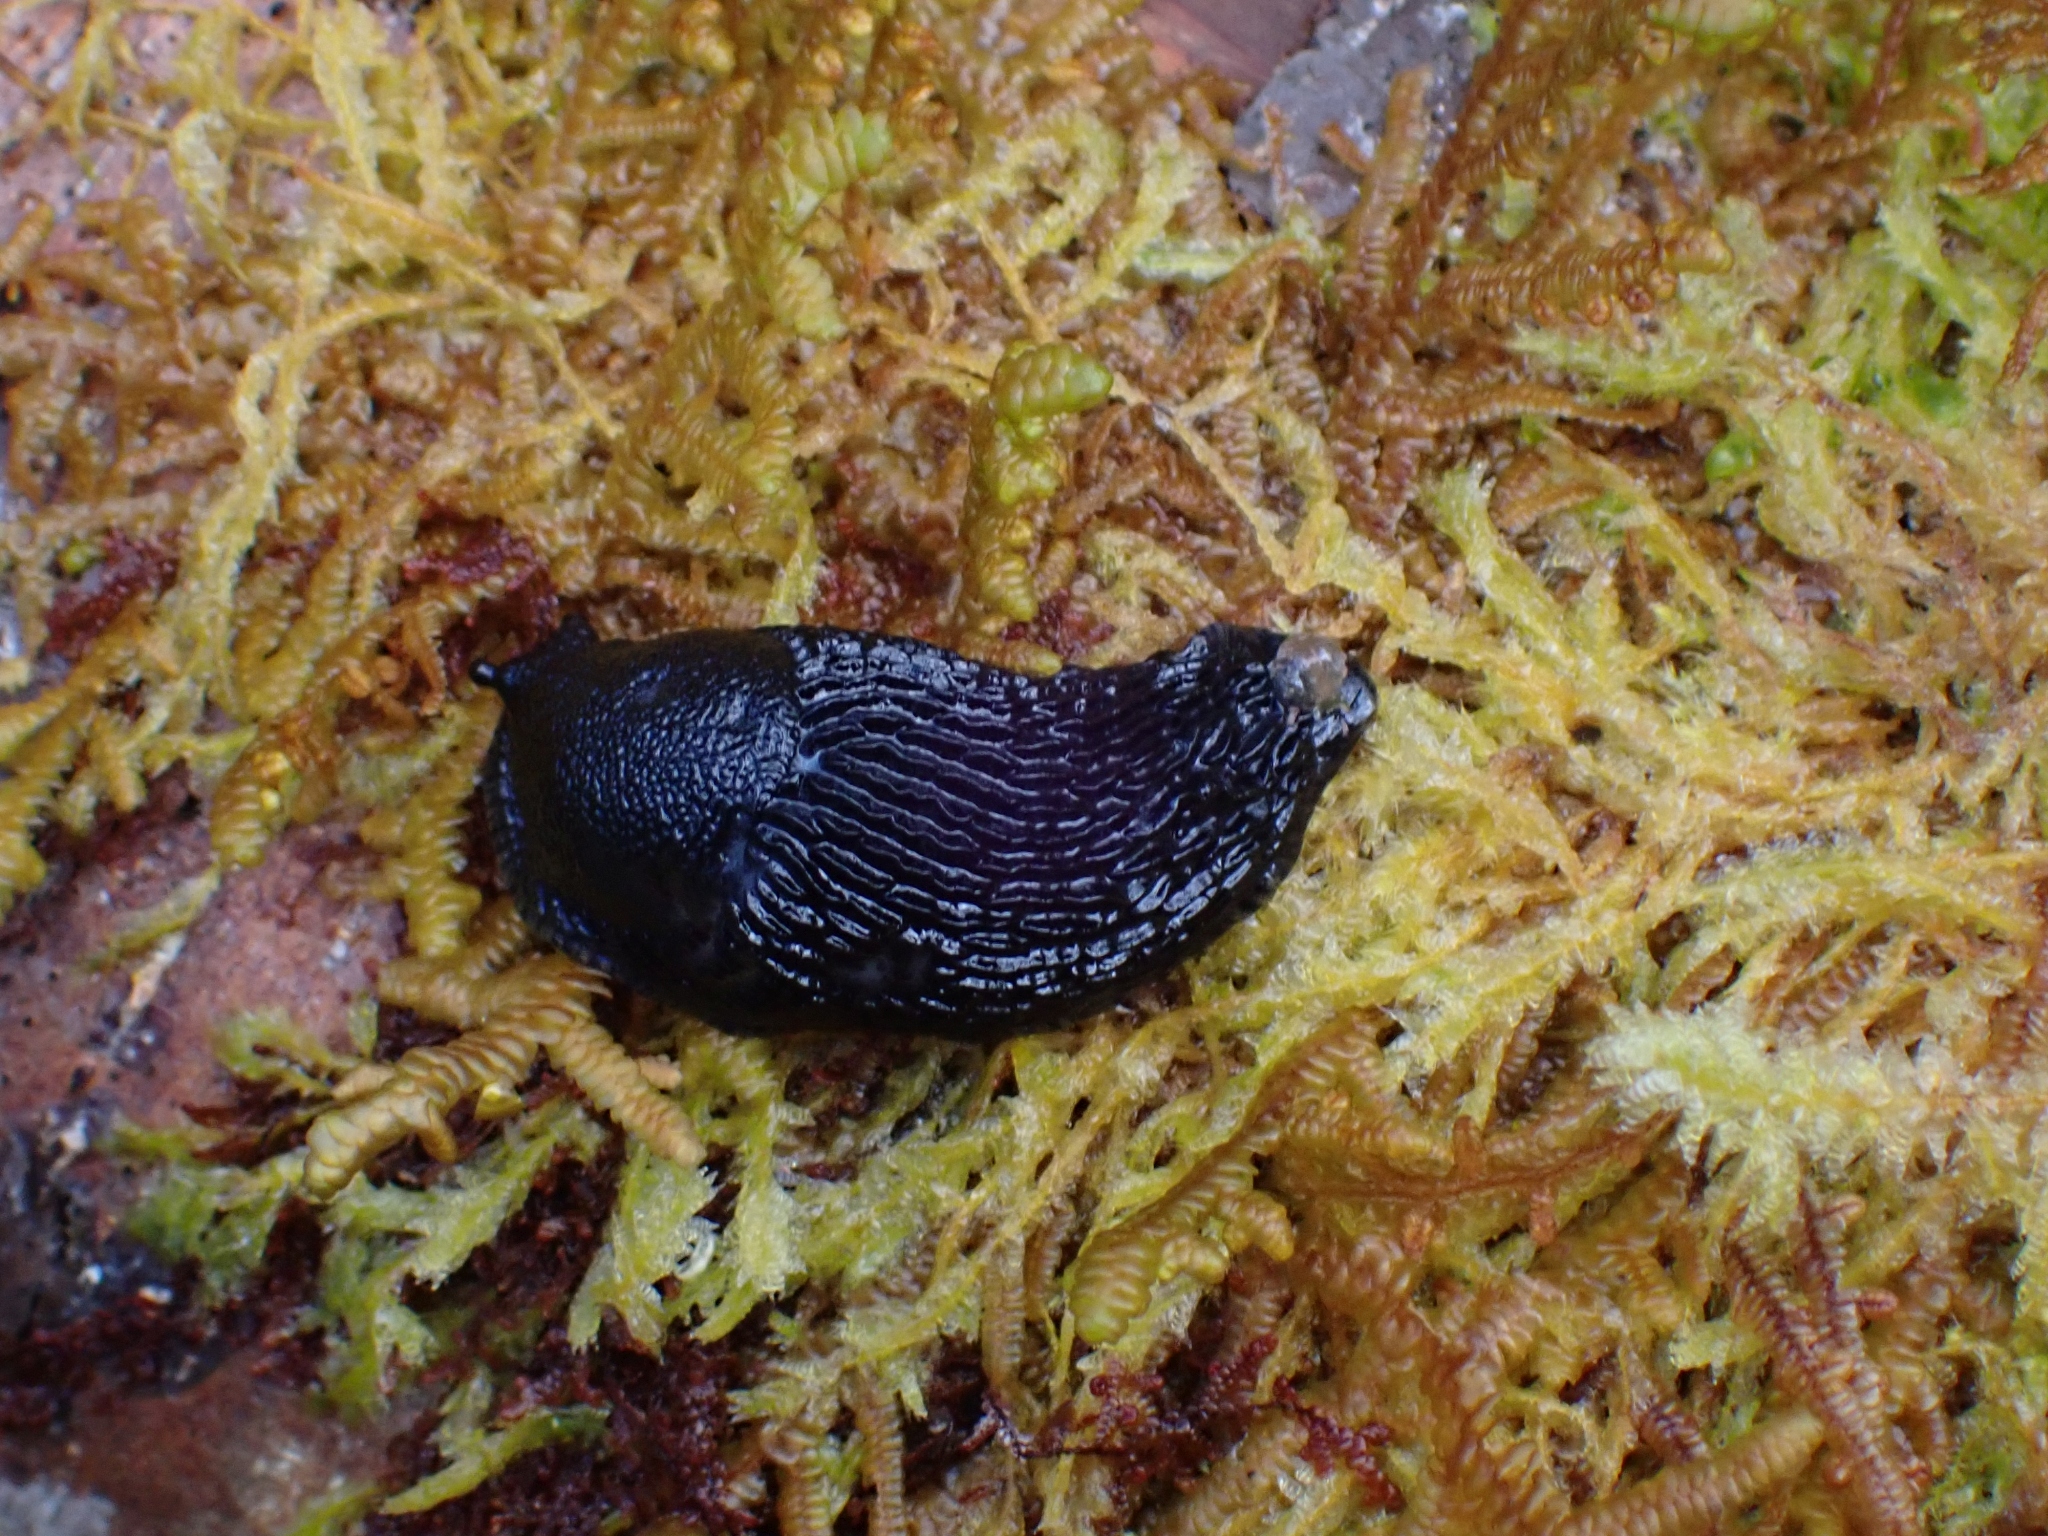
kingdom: Animalia
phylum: Mollusca
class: Gastropoda
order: Stylommatophora
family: Arionidae
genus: Arion
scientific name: Arion
